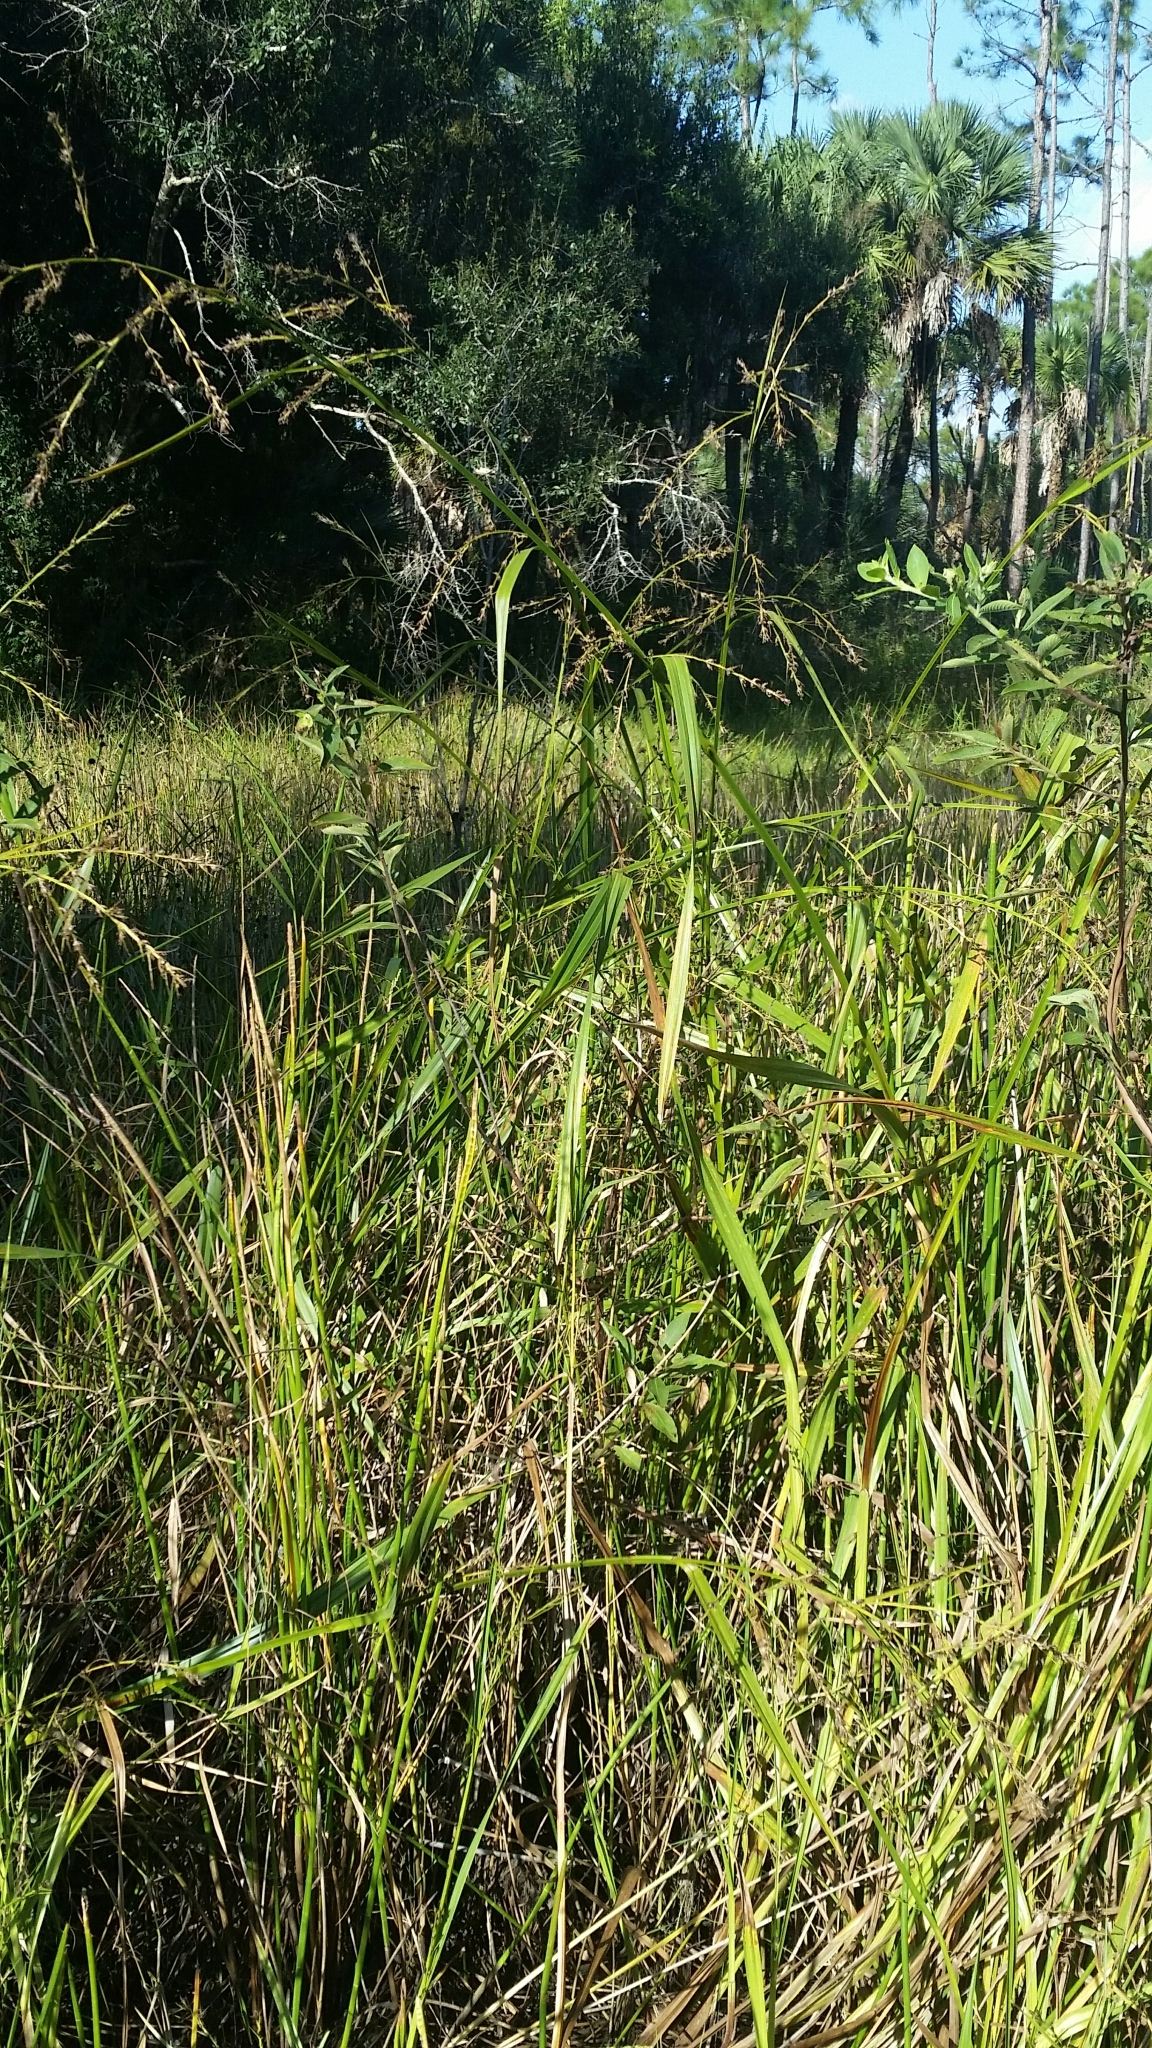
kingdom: Plantae
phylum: Tracheophyta
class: Liliopsida
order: Poales
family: Cyperaceae
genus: Scleria
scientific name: Scleria lacustris
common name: Lakeshore nutrush
